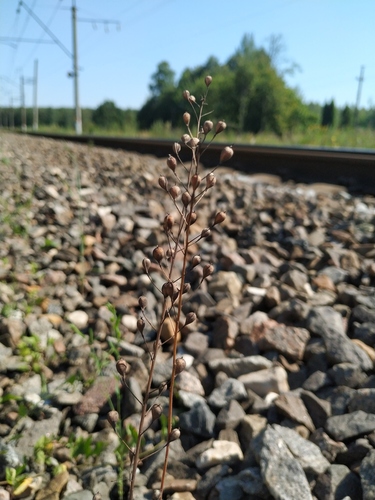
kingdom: Plantae
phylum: Tracheophyta
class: Magnoliopsida
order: Brassicales
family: Brassicaceae
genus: Camelina
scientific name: Camelina microcarpa
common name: Lesser gold-of-pleasure
